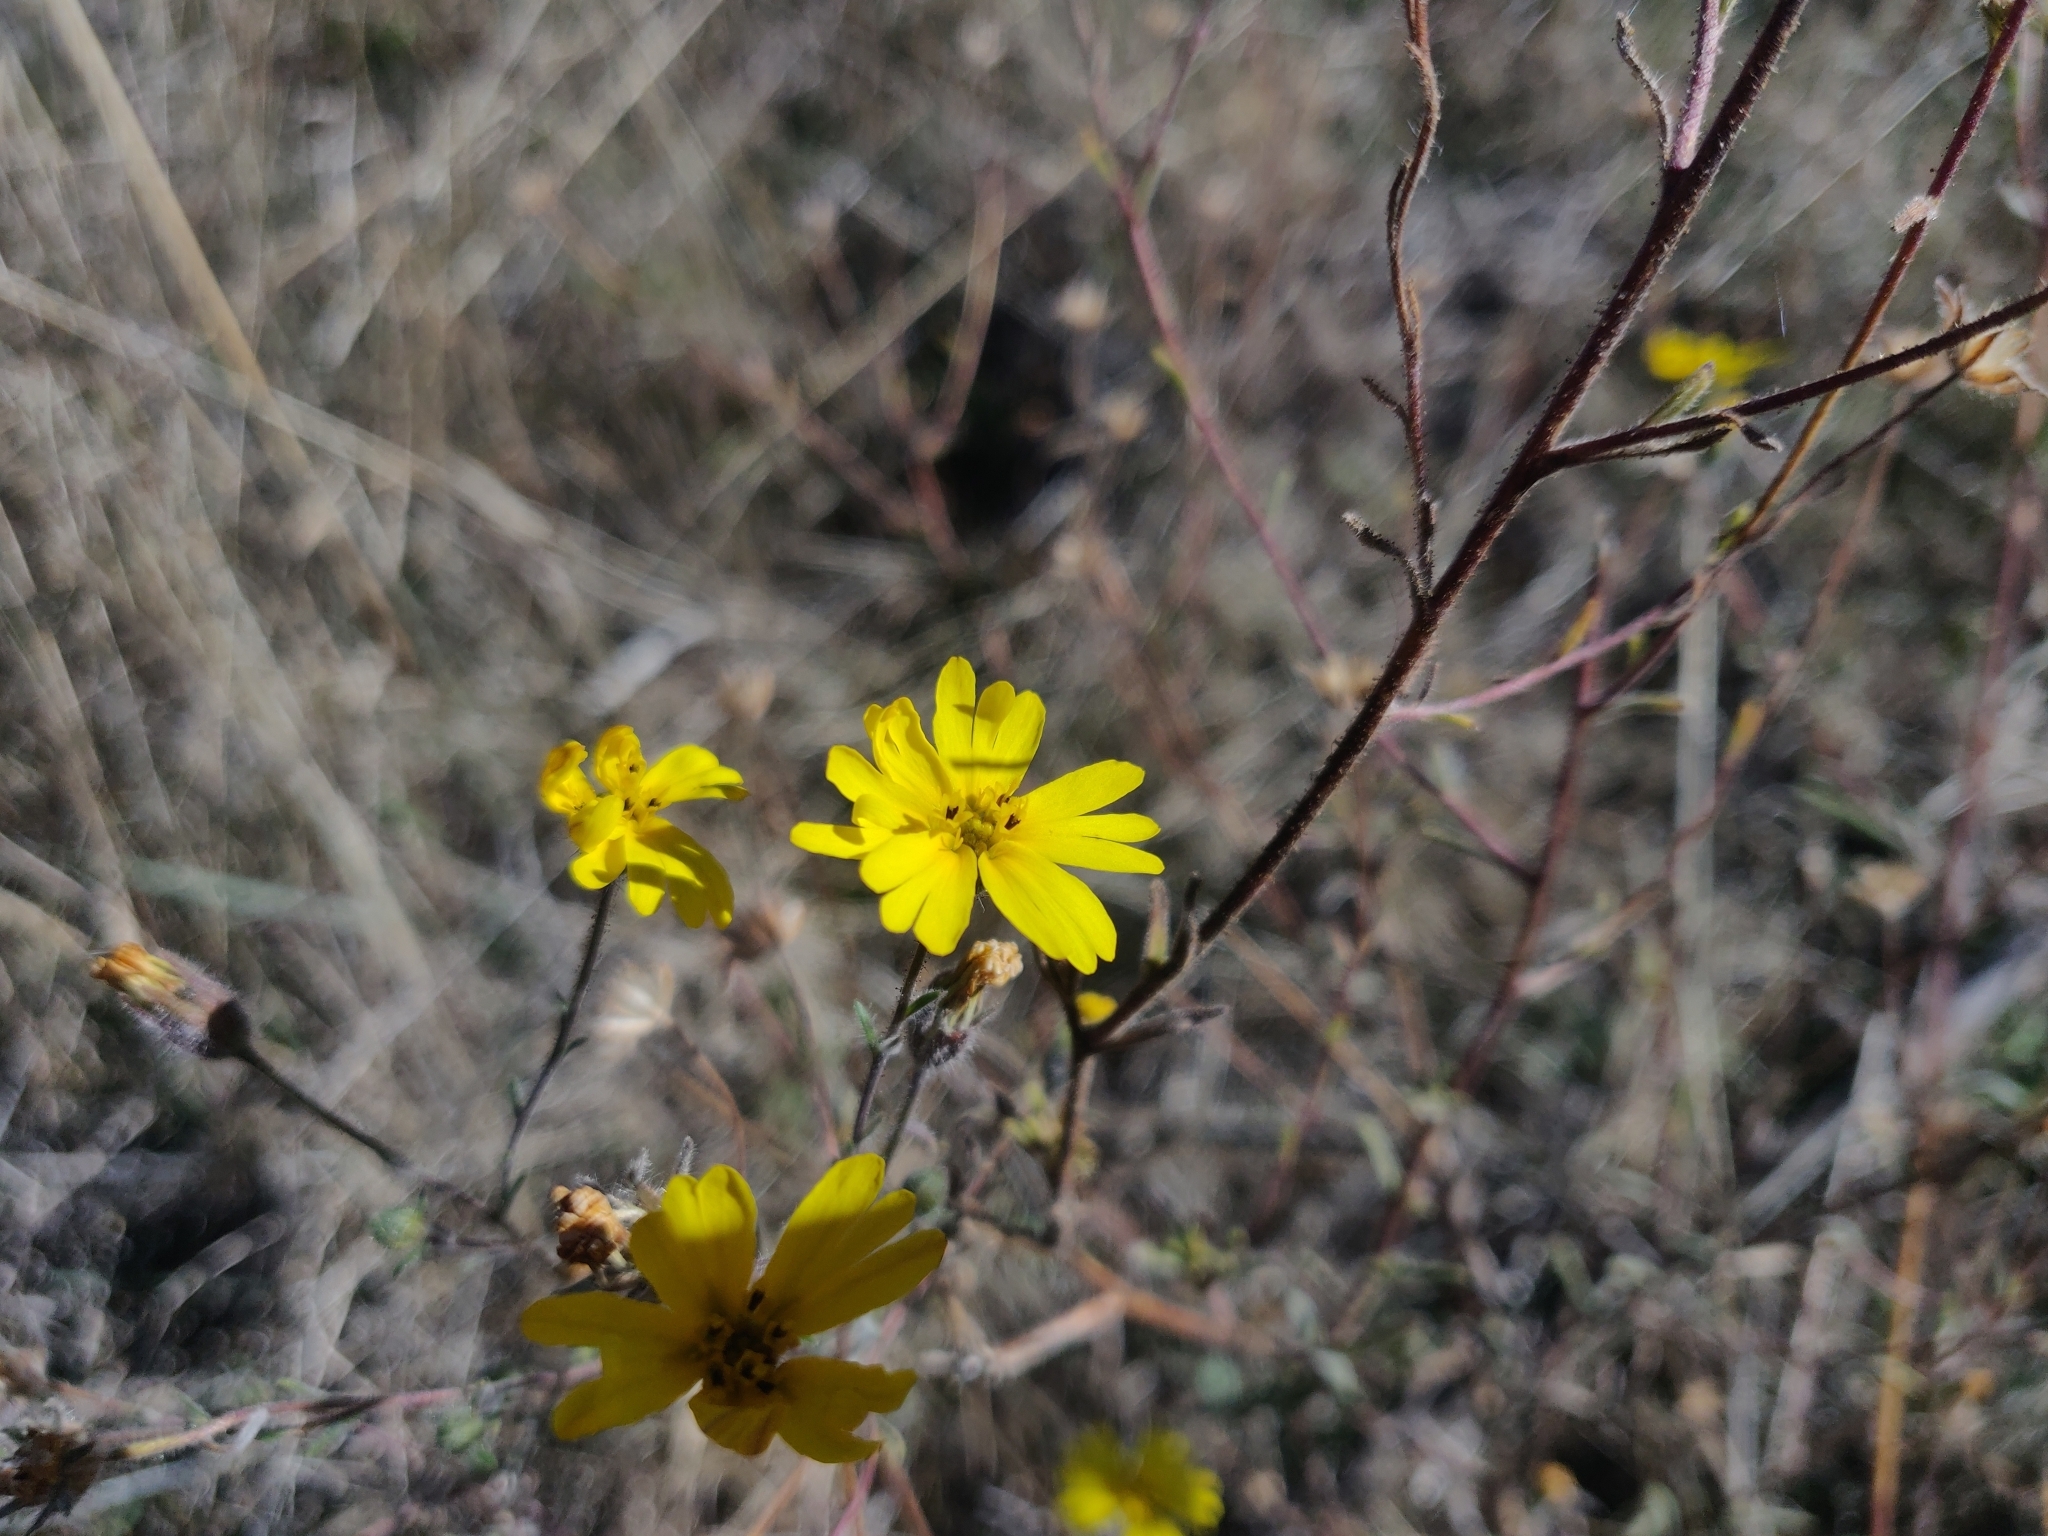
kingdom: Plantae
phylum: Tracheophyta
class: Magnoliopsida
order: Asterales
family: Asteraceae
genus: Madia
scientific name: Madia elegans
